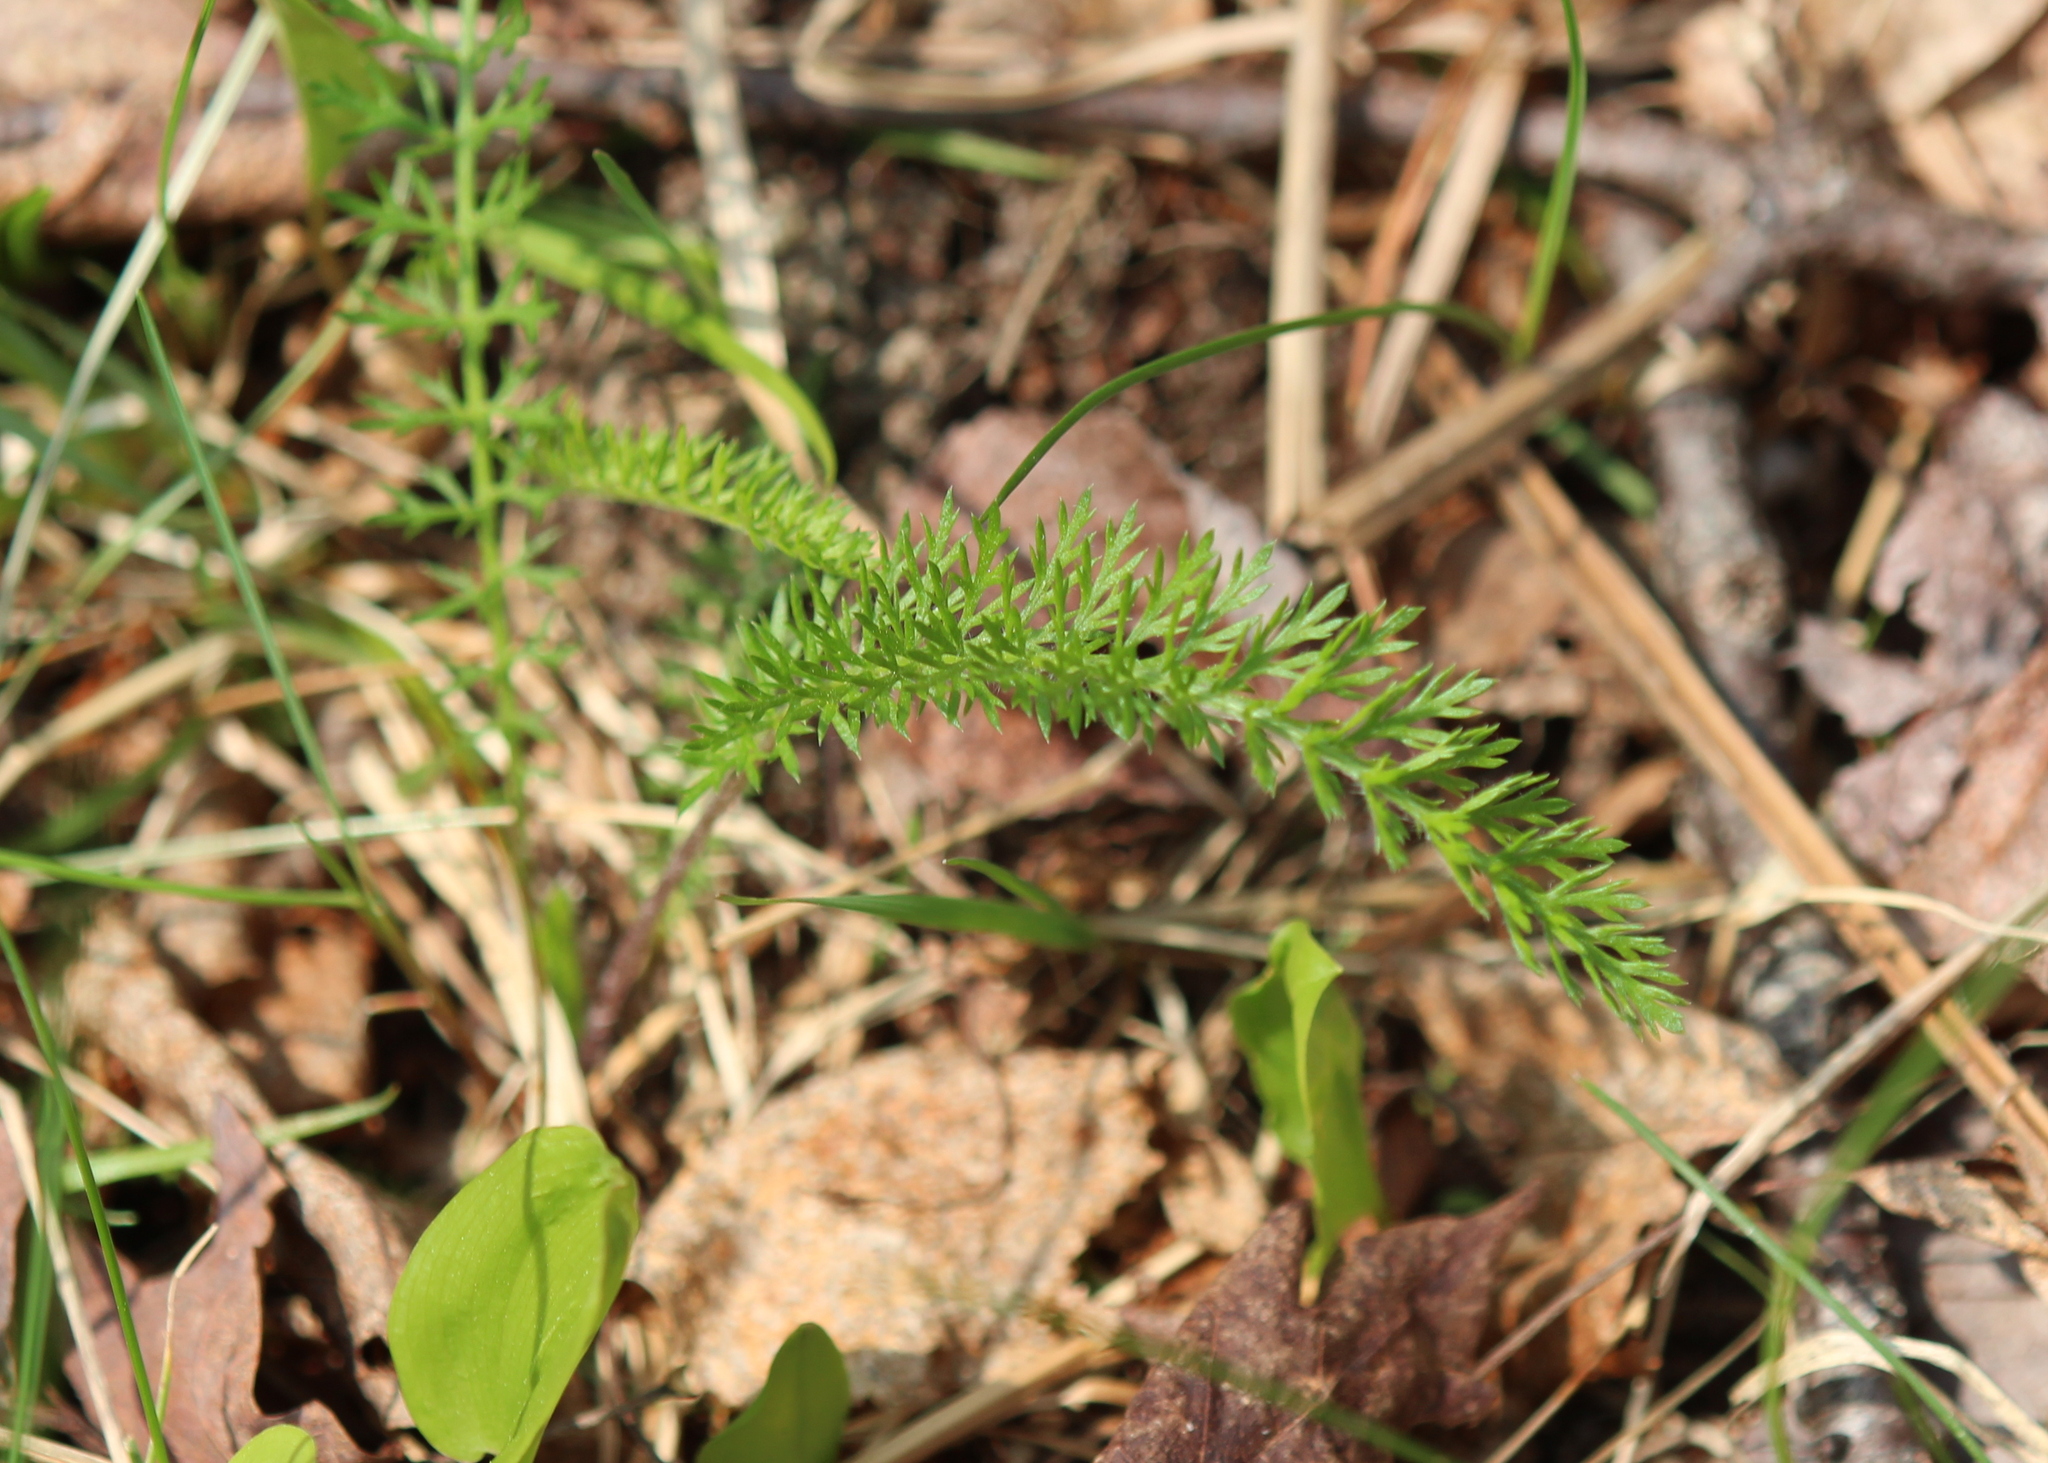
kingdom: Plantae
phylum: Tracheophyta
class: Magnoliopsida
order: Asterales
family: Asteraceae
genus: Achillea
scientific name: Achillea millefolium
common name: Yarrow
